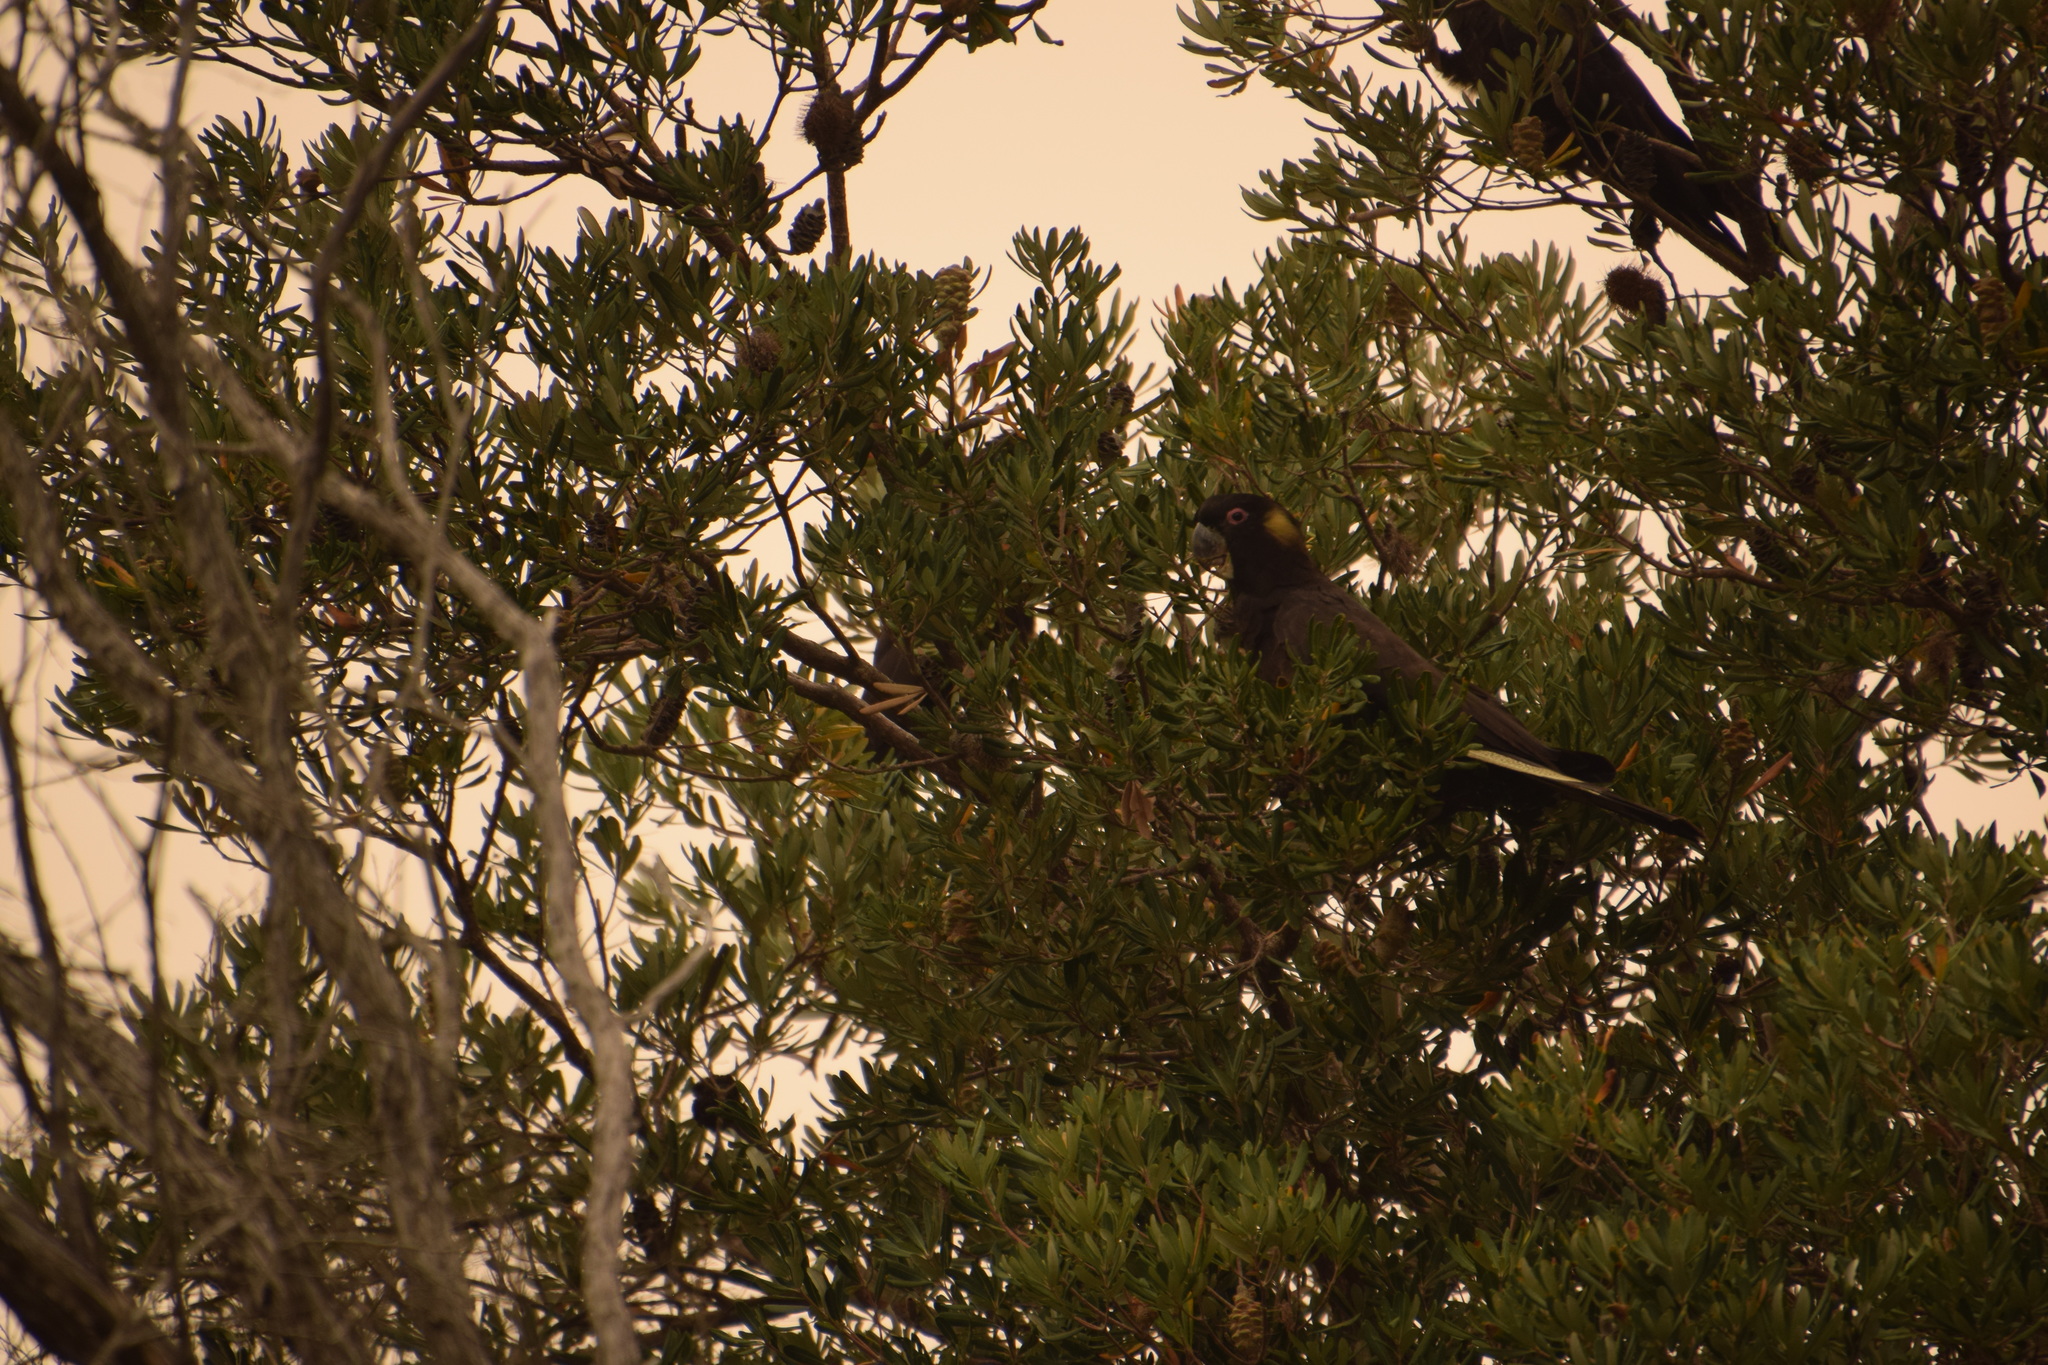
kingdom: Animalia
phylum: Chordata
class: Aves
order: Psittaciformes
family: Cacatuidae
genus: Zanda
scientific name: Zanda funerea
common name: Yellow-tailed black-cockatoo
